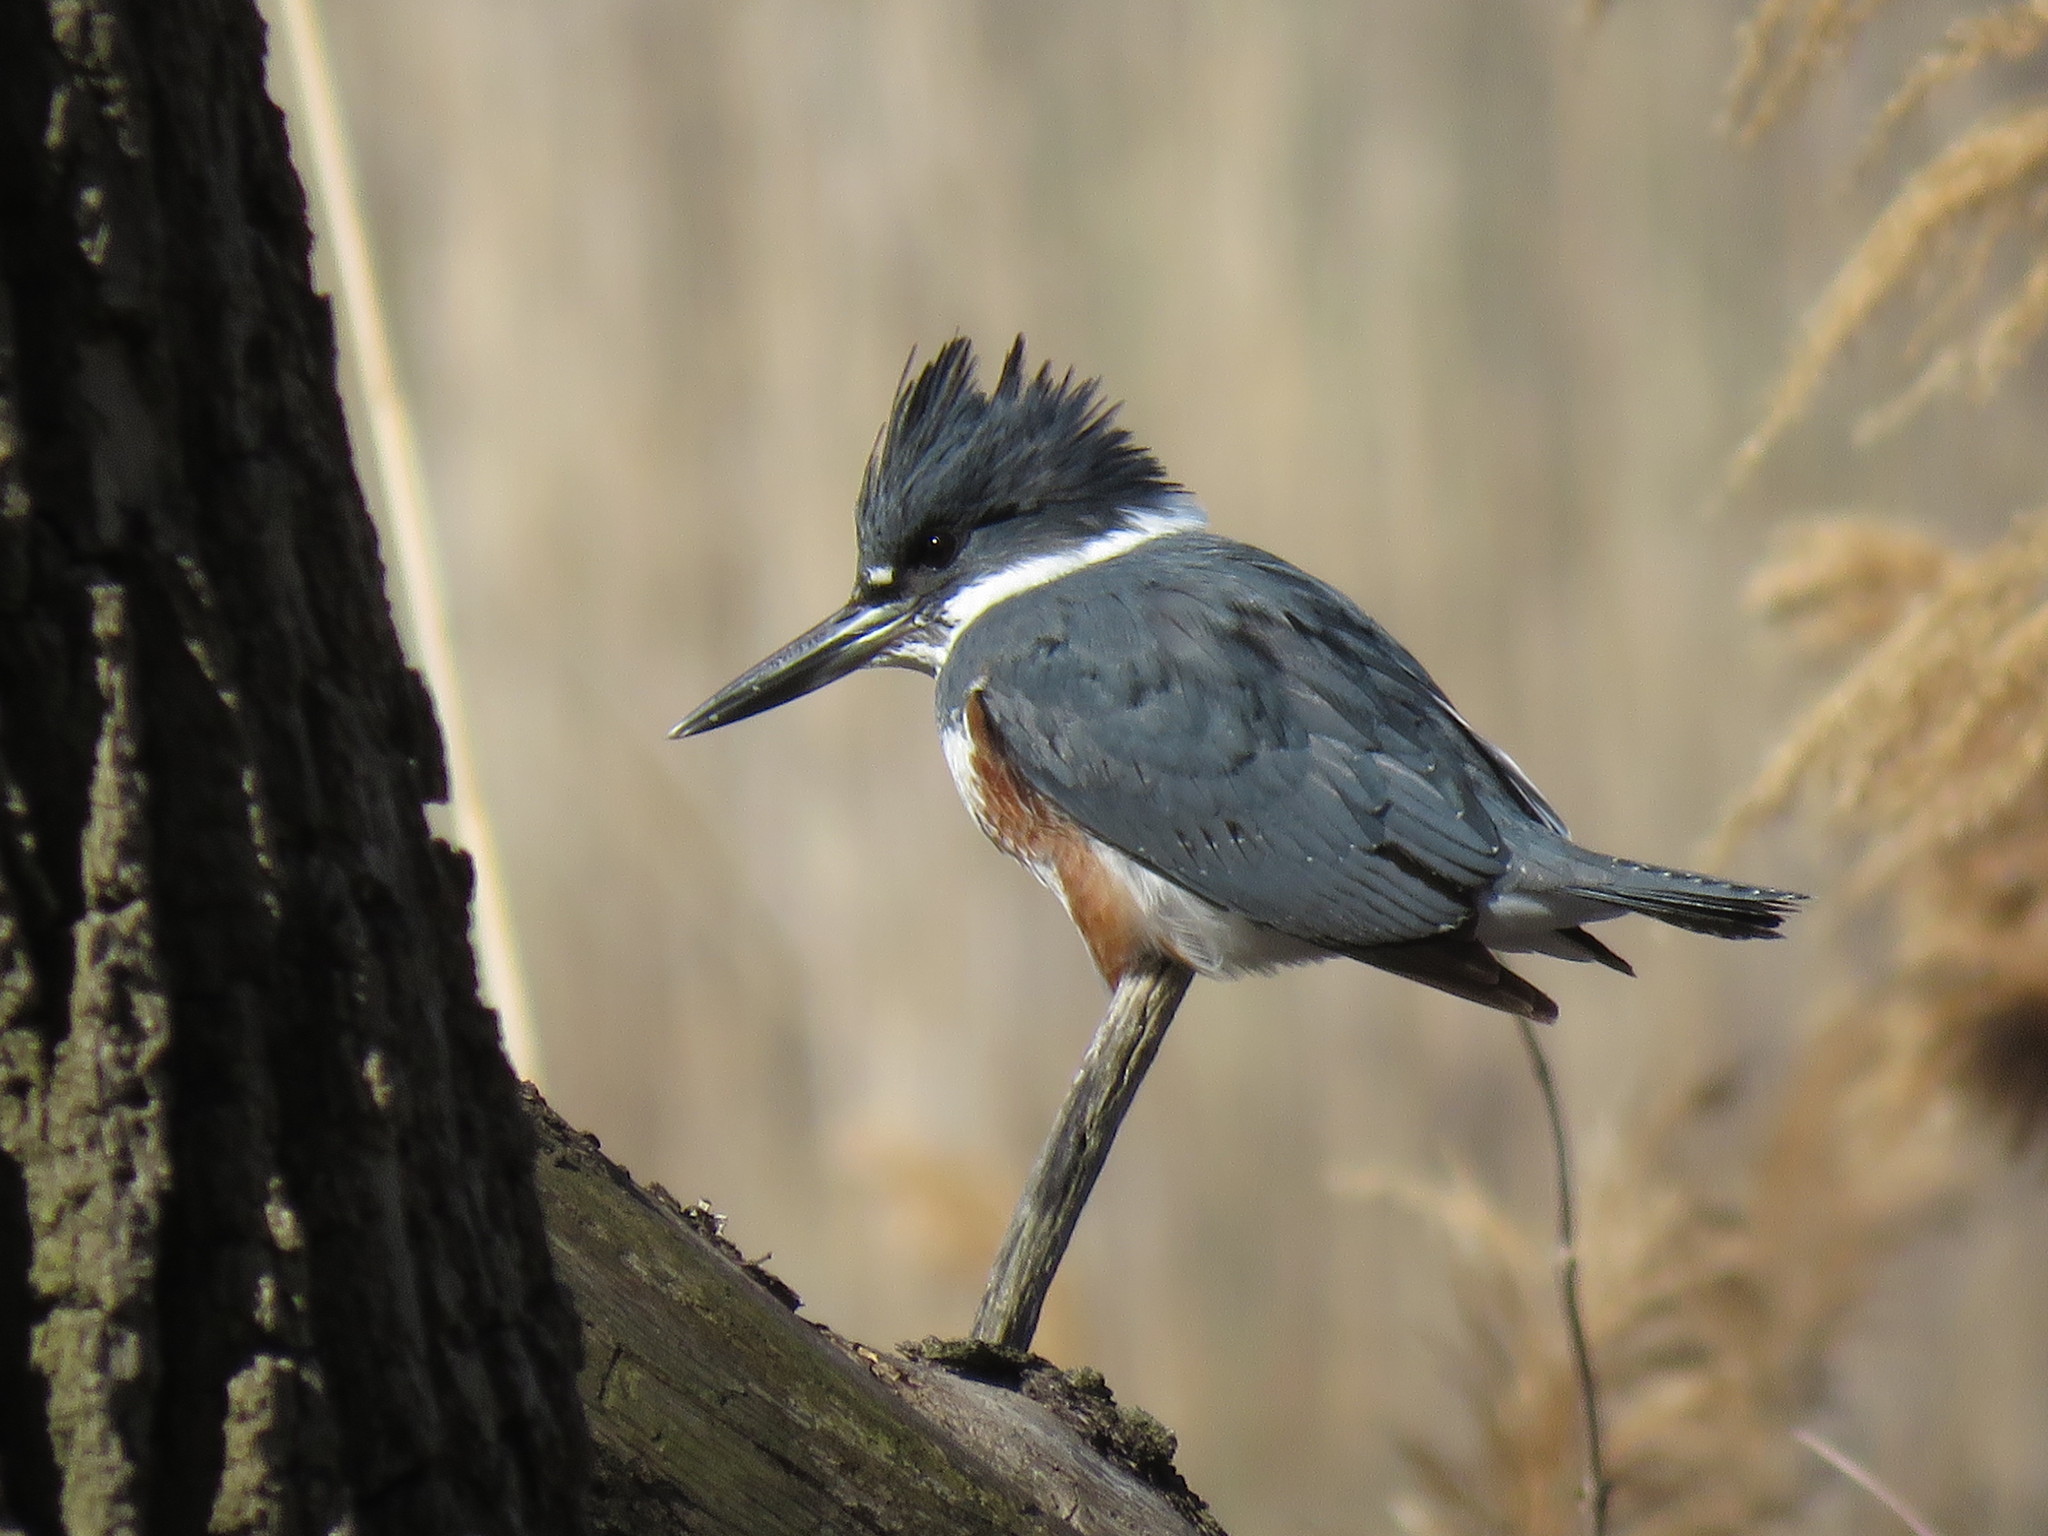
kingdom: Animalia
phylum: Chordata
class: Aves
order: Coraciiformes
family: Alcedinidae
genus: Megaceryle
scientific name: Megaceryle alcyon
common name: Belted kingfisher
